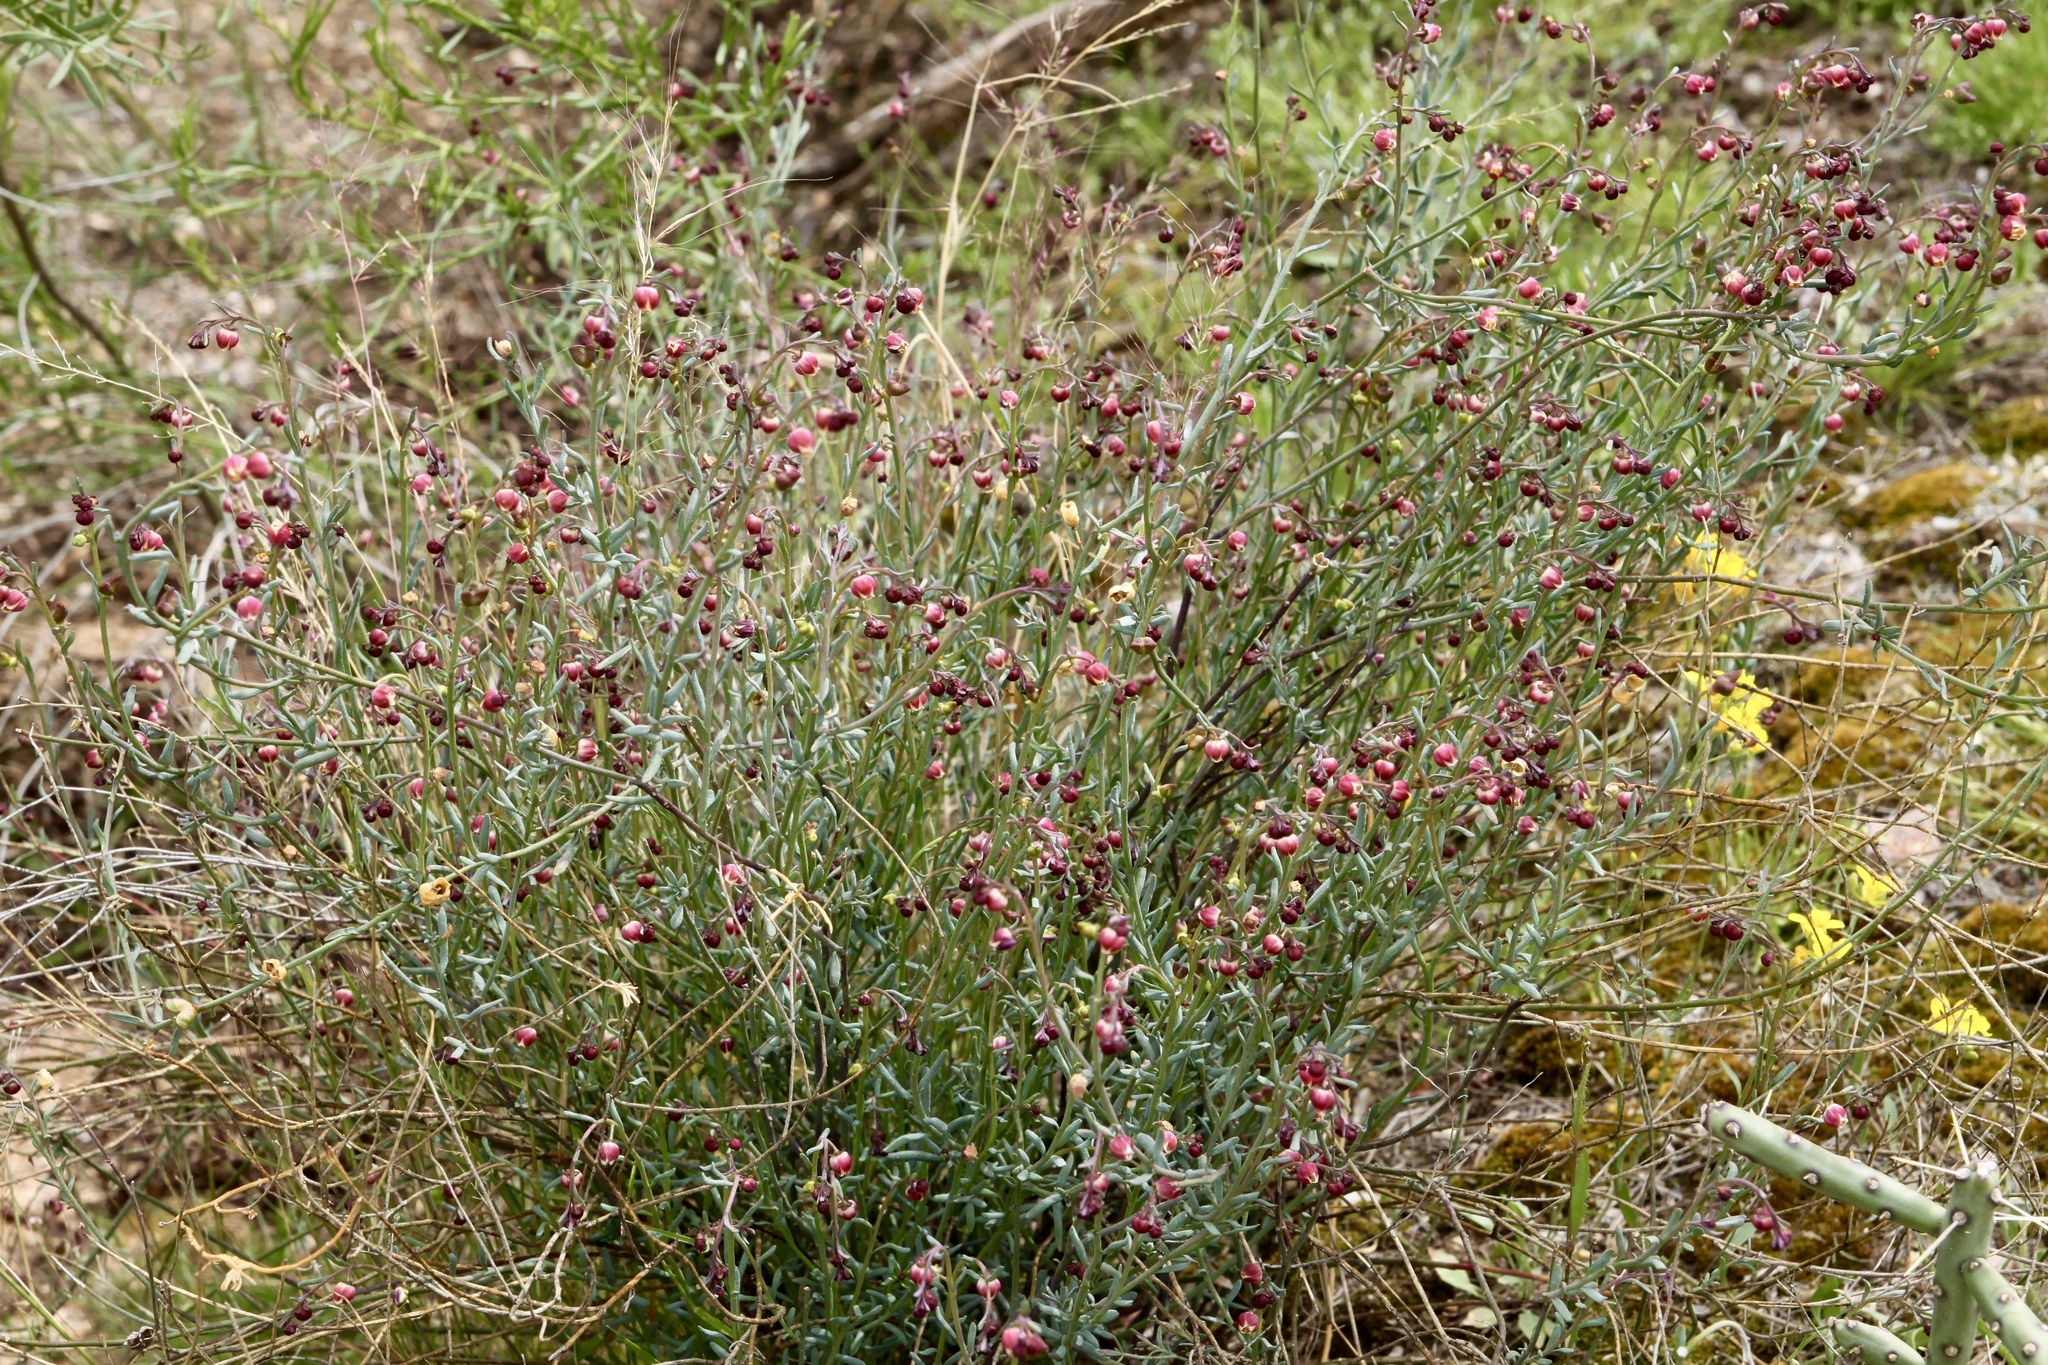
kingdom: Plantae
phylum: Tracheophyta
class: Magnoliopsida
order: Sapindales
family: Rutaceae
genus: Thamnosma
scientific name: Thamnosma texana
